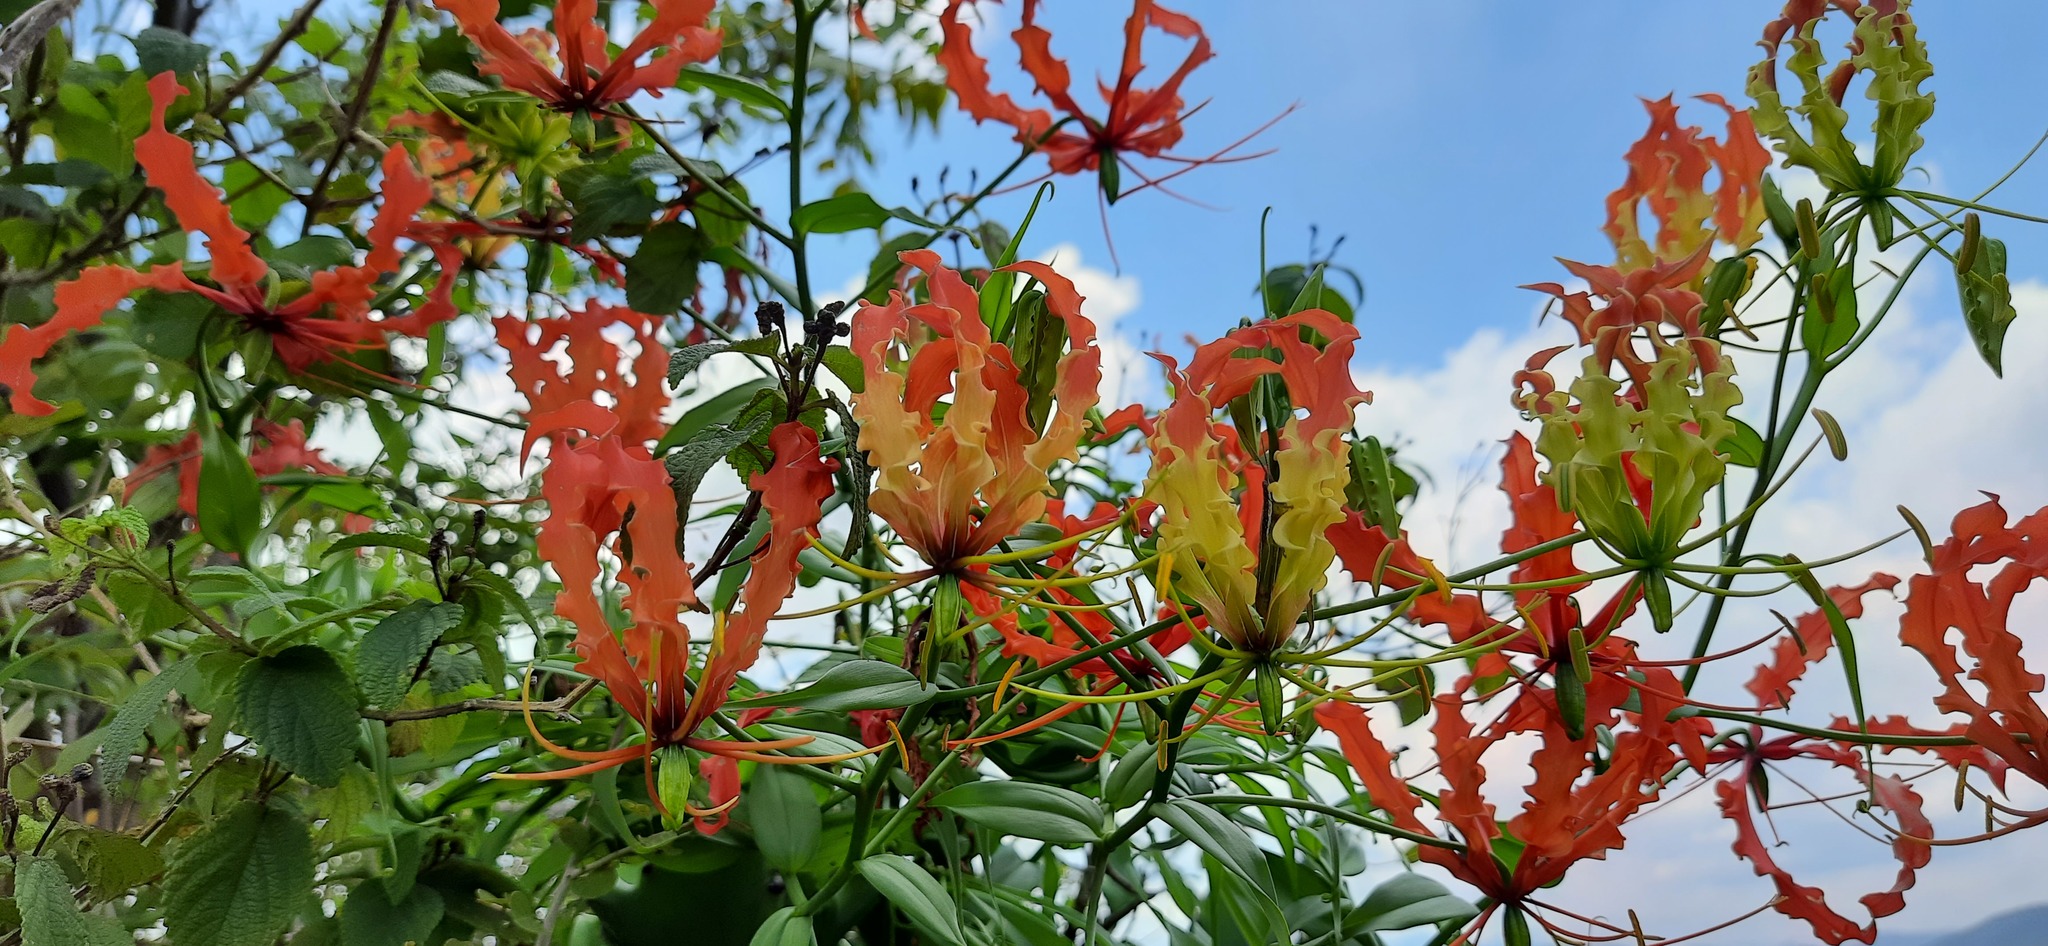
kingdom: Plantae
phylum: Tracheophyta
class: Liliopsida
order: Liliales
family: Colchicaceae
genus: Gloriosa
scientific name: Gloriosa superba
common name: Flame lily
